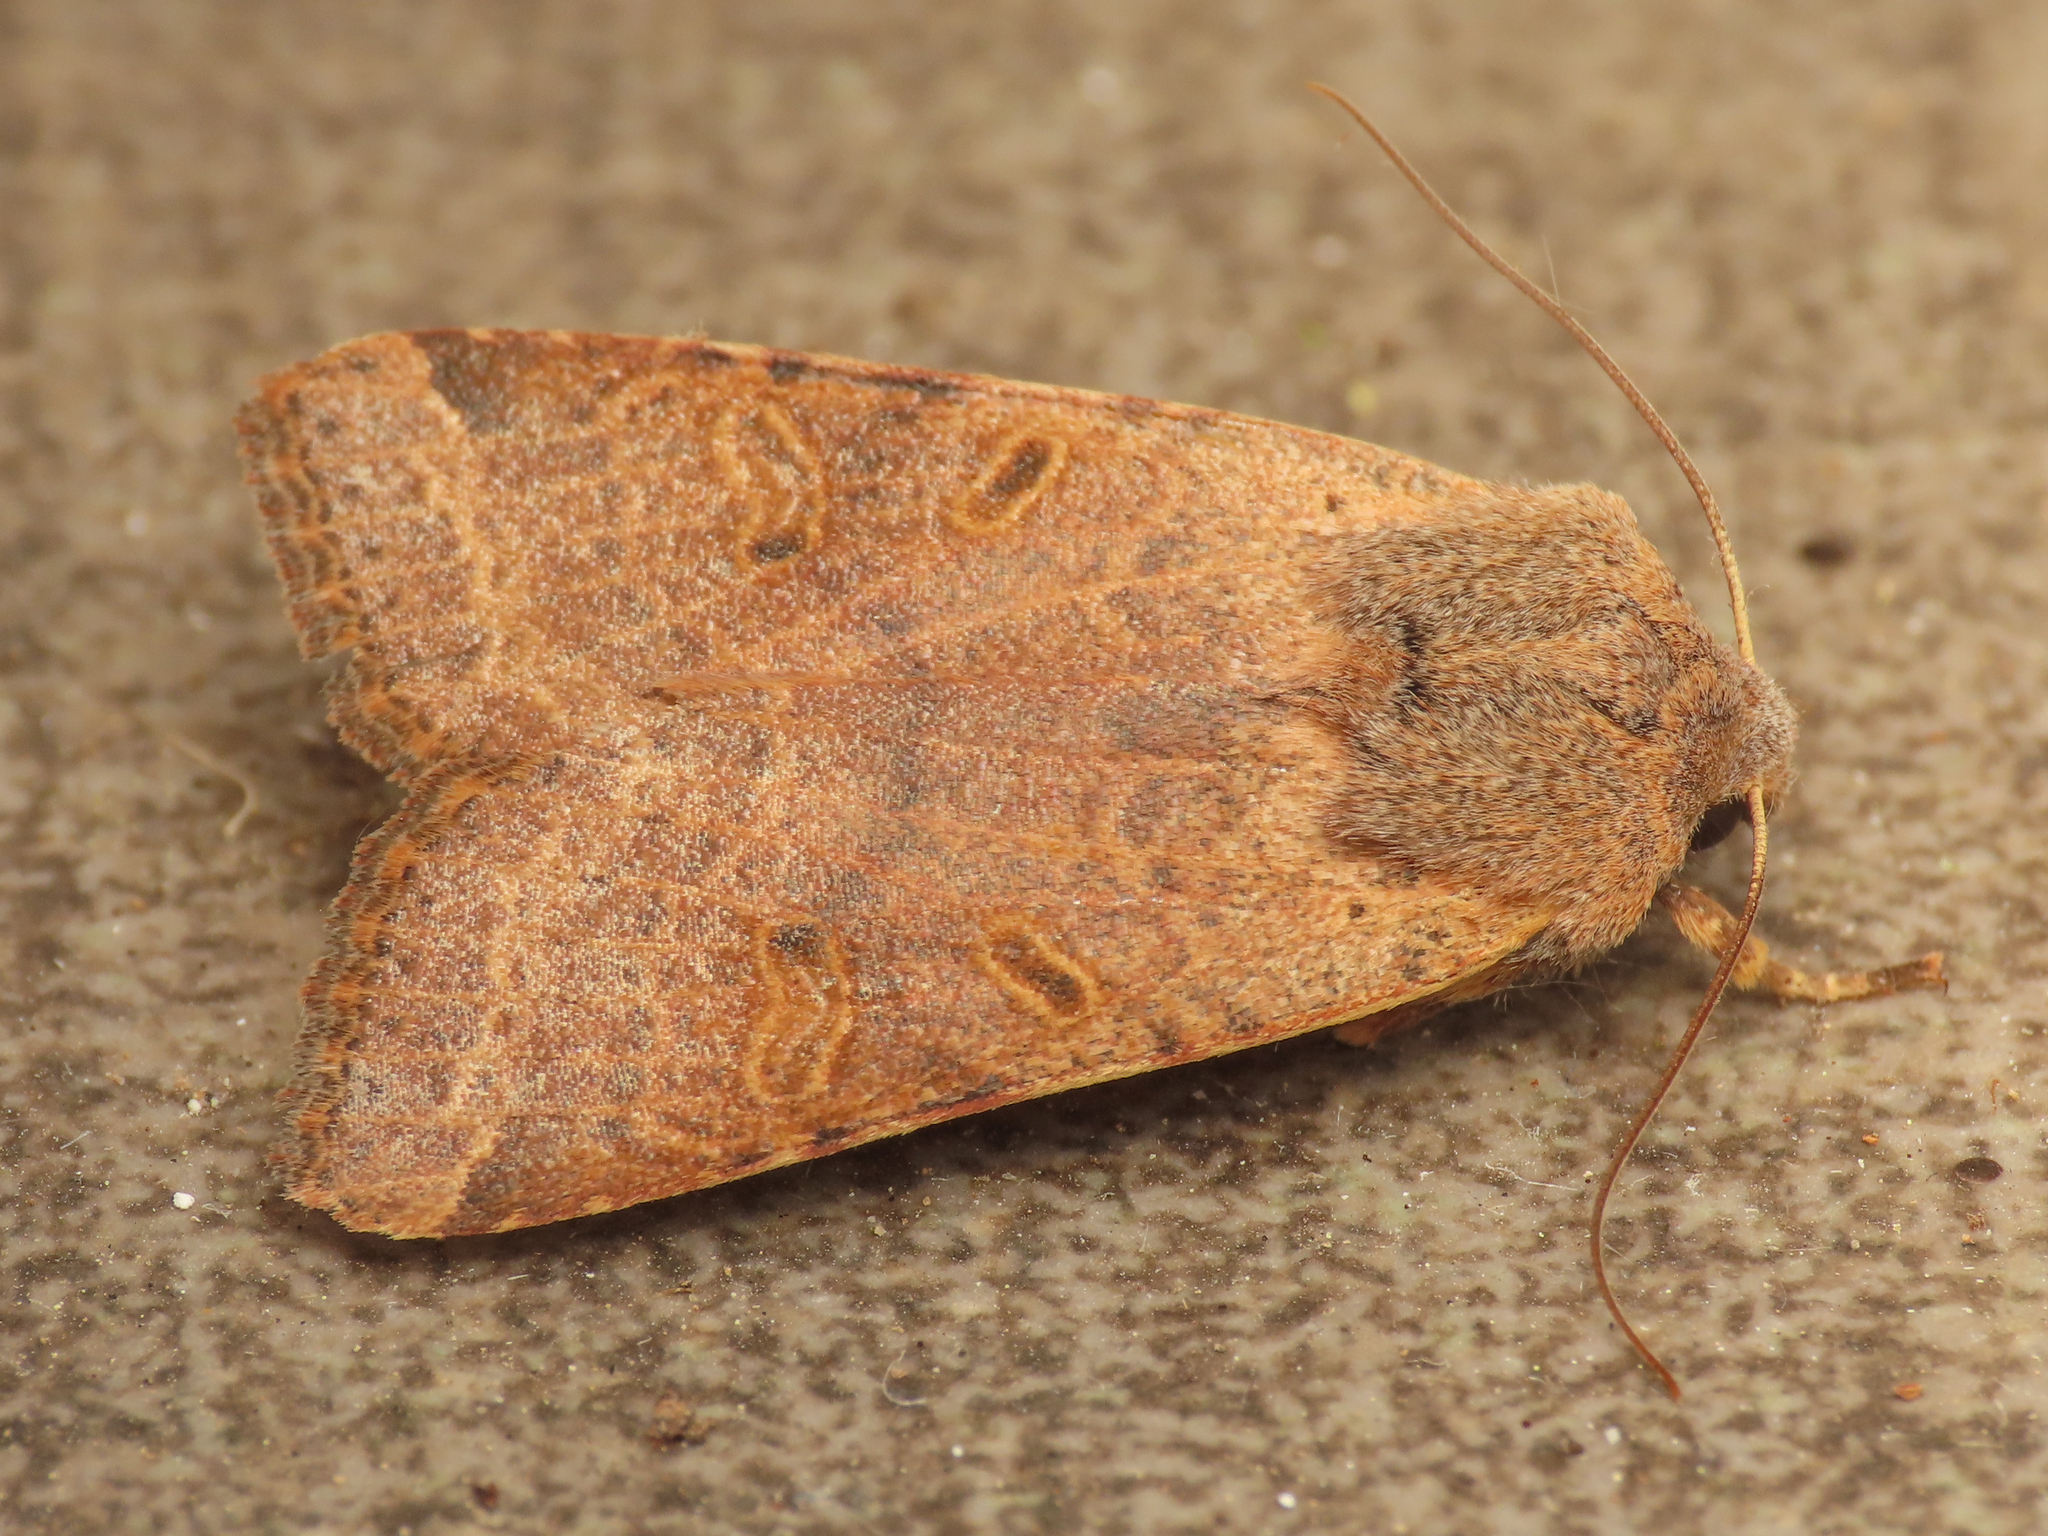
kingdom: Animalia
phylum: Arthropoda
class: Insecta
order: Lepidoptera
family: Noctuidae
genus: Agrochola
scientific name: Agrochola lychnidis
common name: Beaded chestnut
